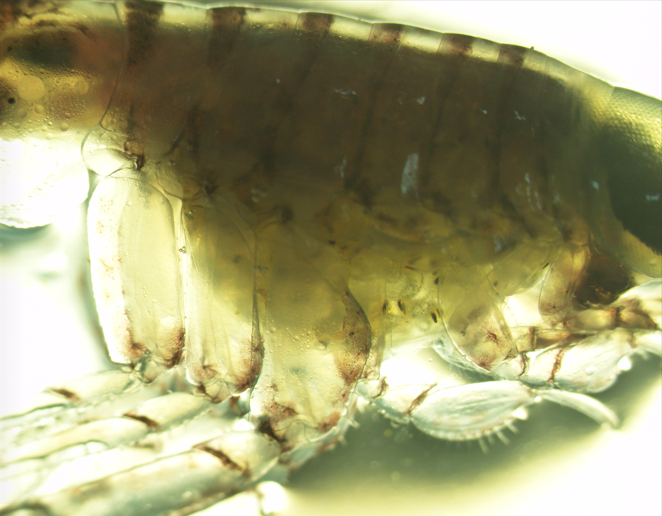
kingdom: Animalia
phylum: Arthropoda
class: Malacostraca
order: Amphipoda
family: Hyperiidae
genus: Themisto
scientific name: Themisto libellula
